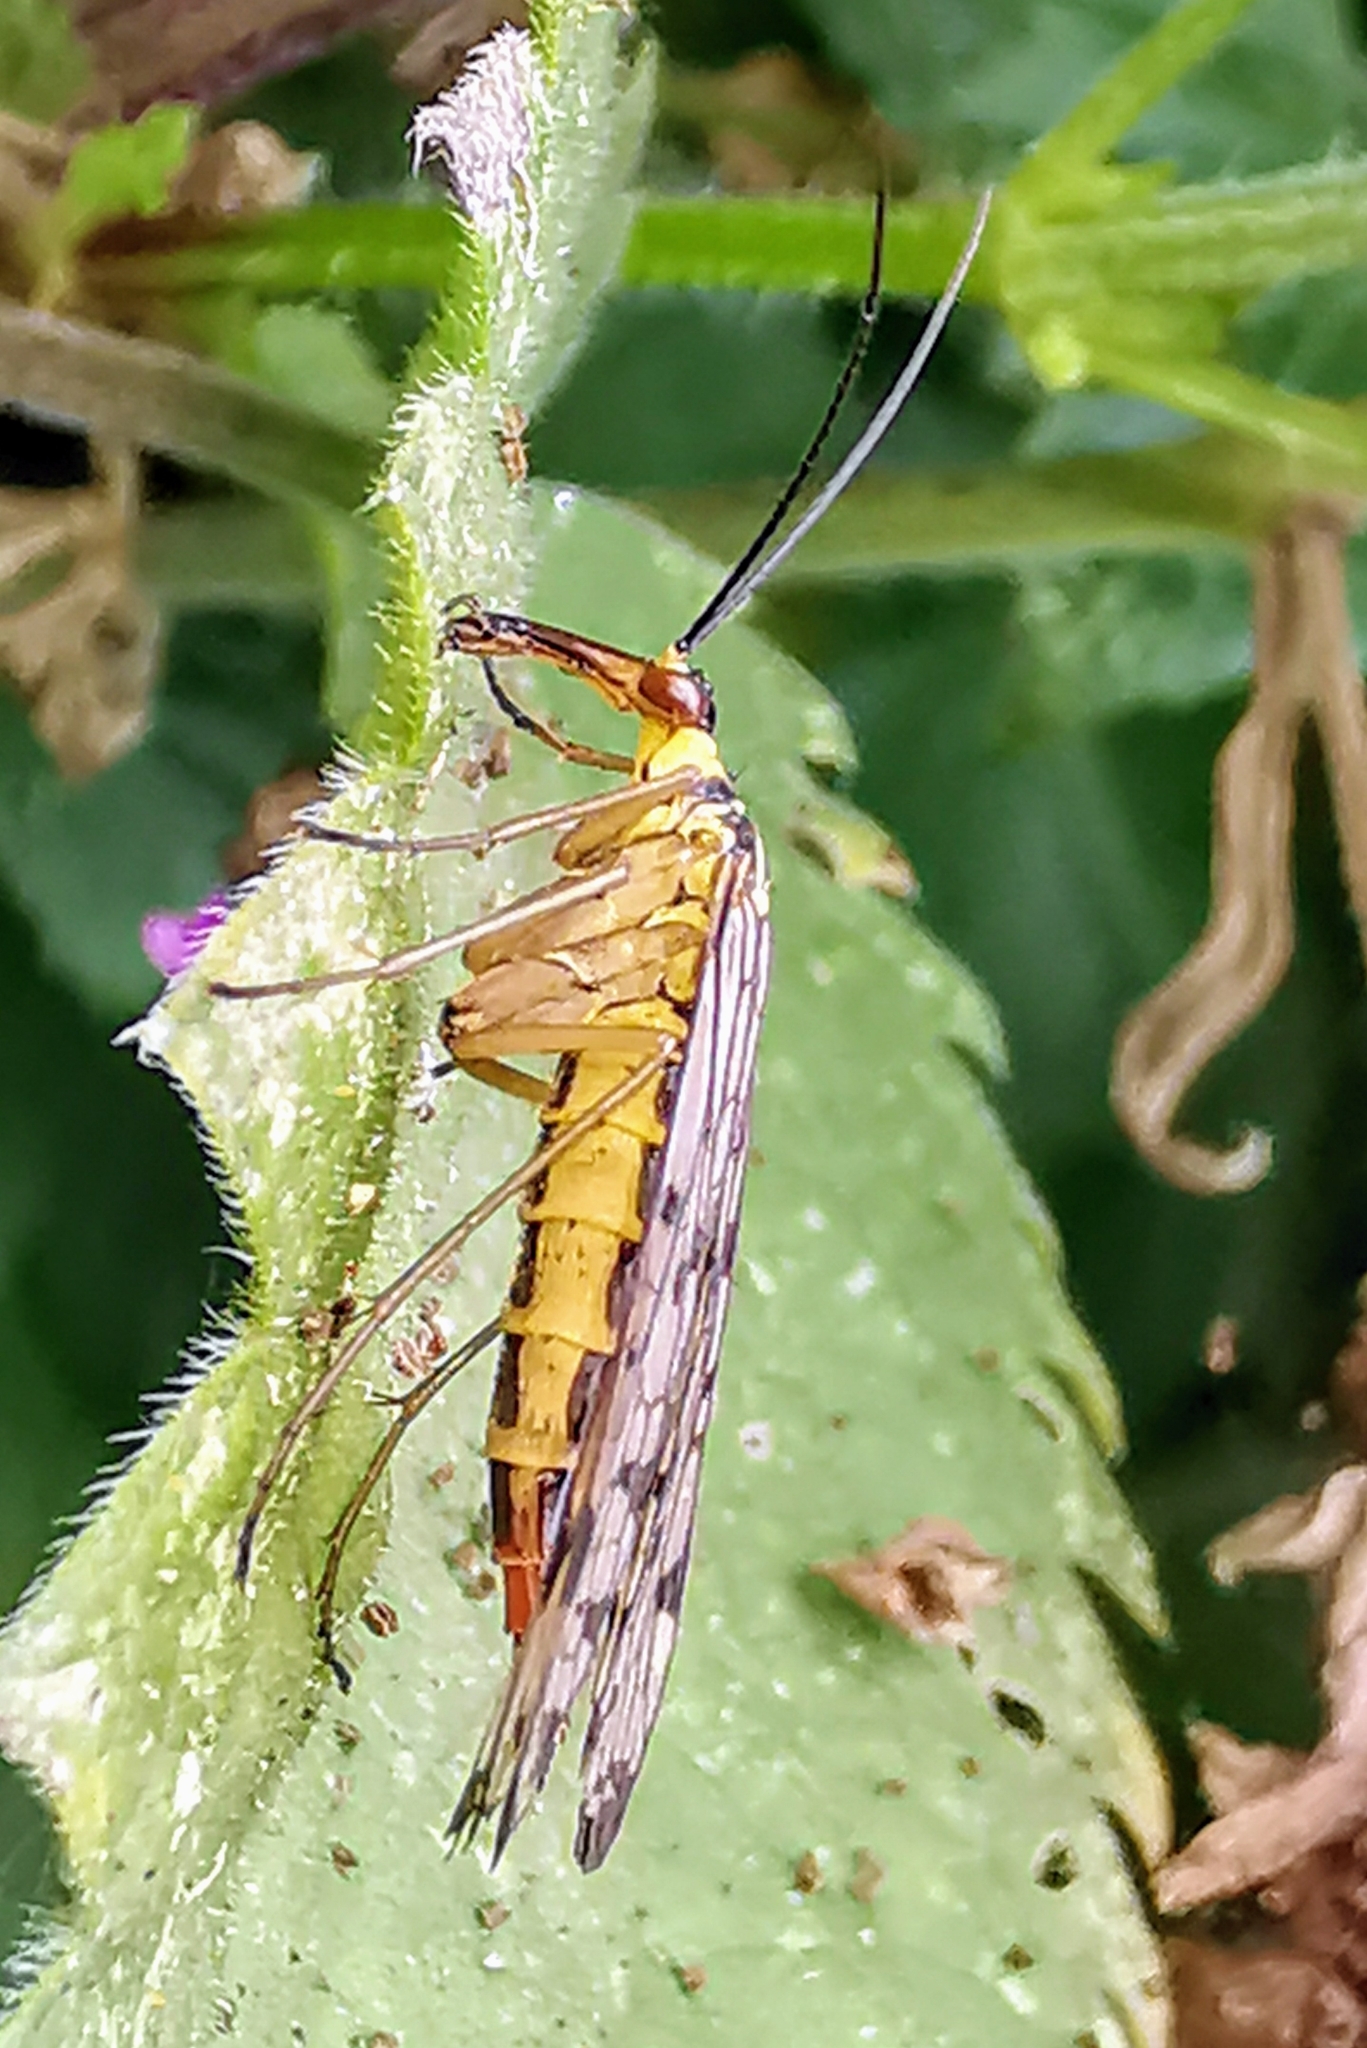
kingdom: Animalia
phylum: Arthropoda
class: Insecta
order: Mecoptera
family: Panorpidae
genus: Panorpa
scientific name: Panorpa germanica
